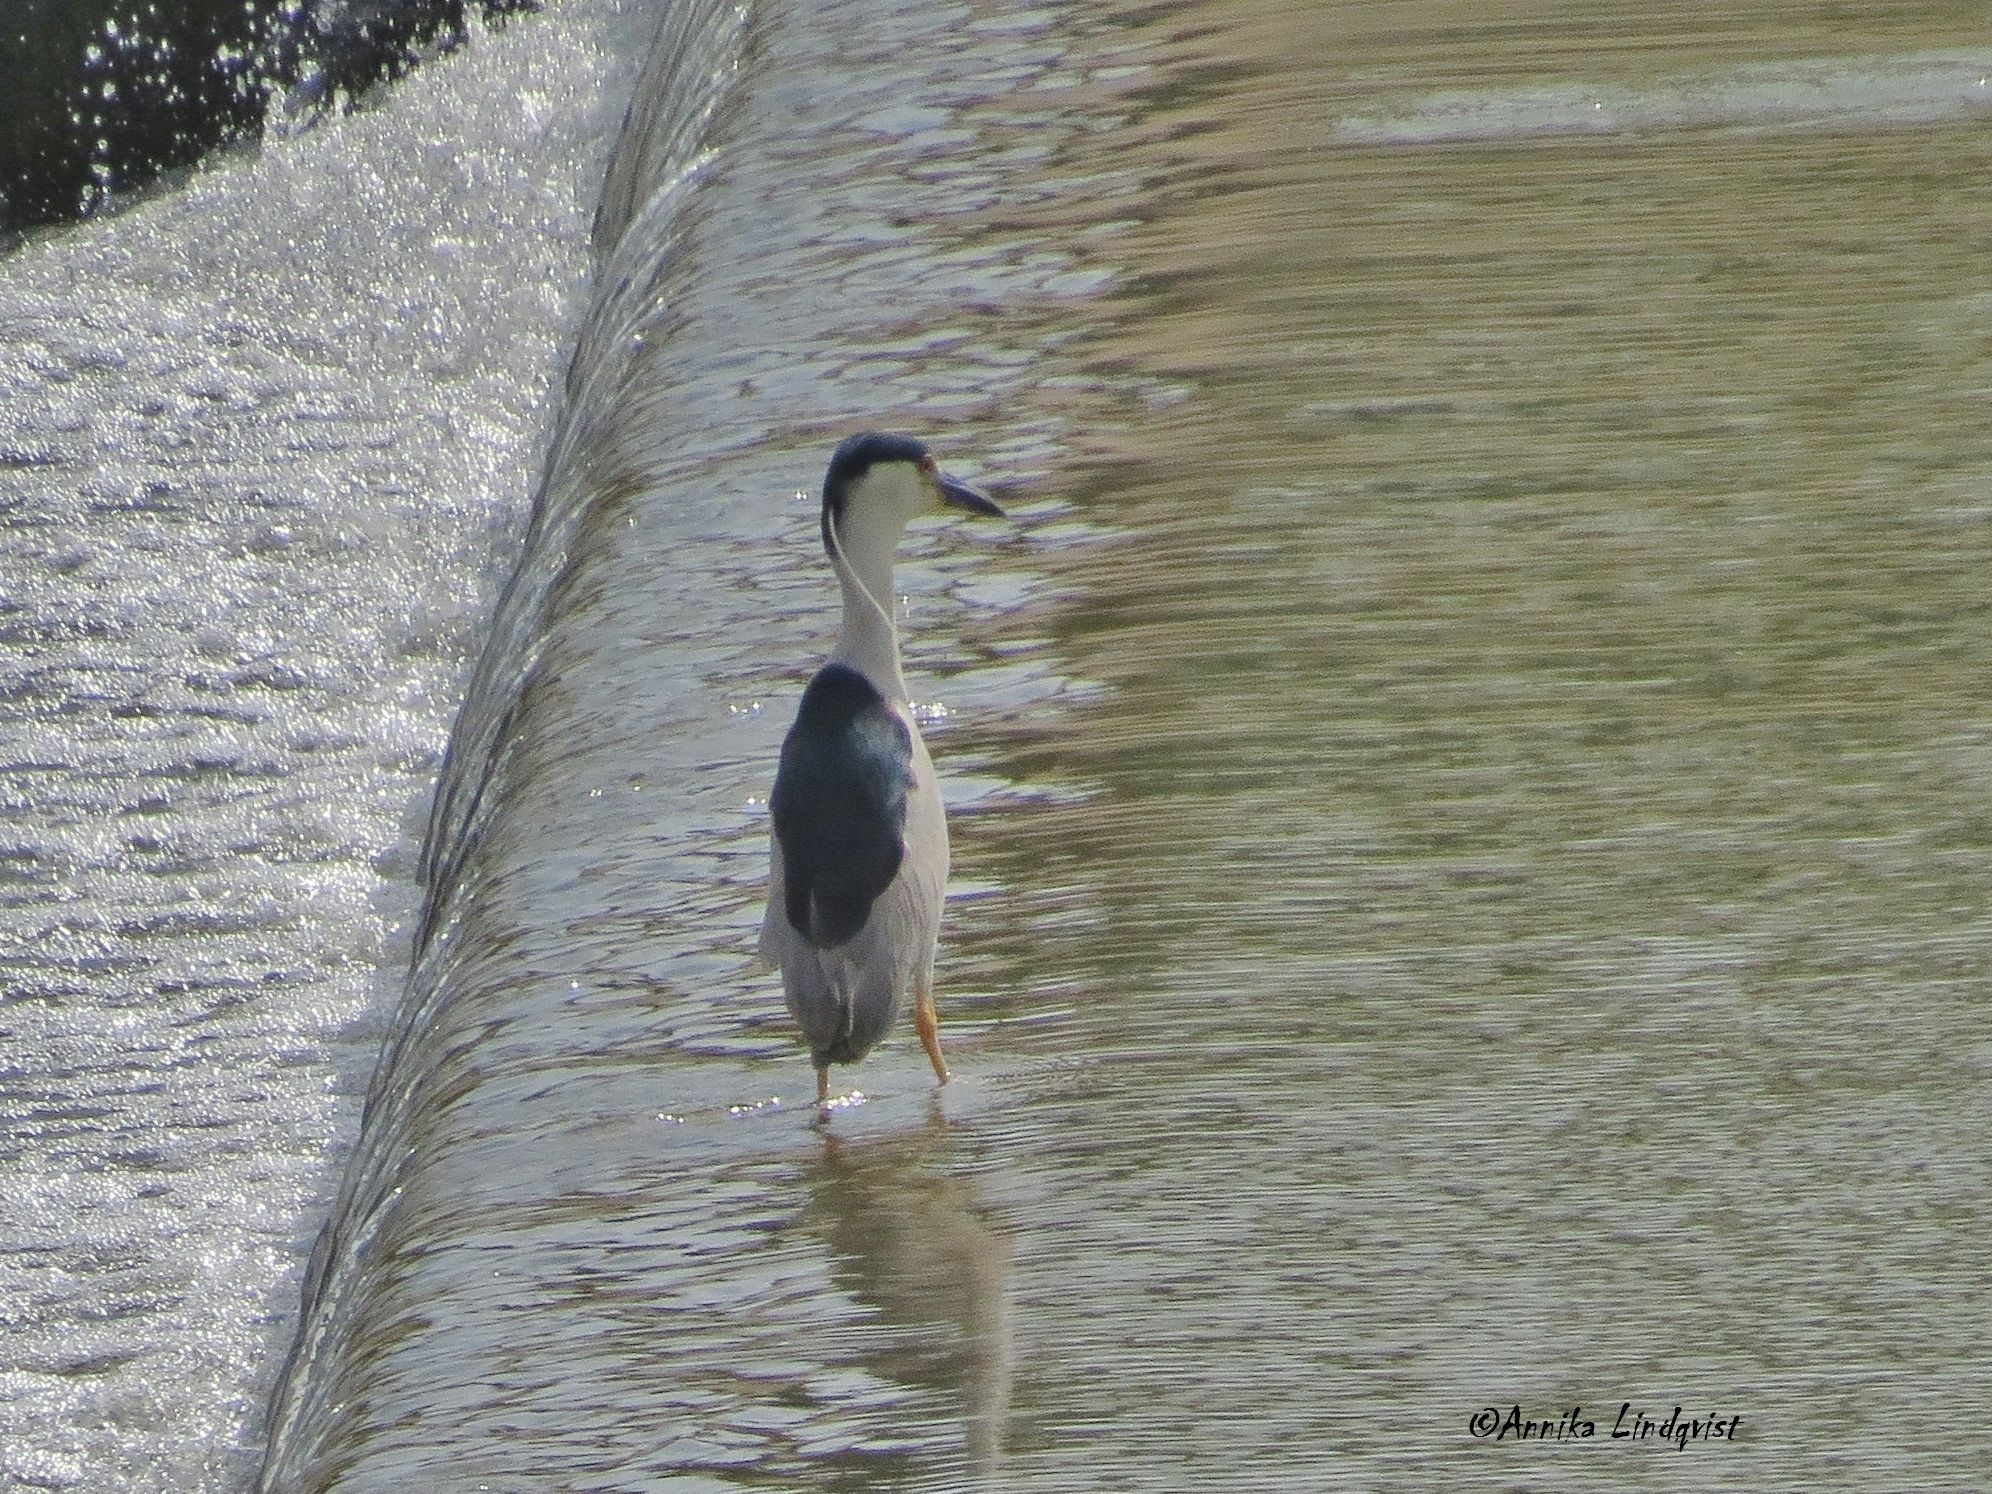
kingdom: Animalia
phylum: Chordata
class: Aves
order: Pelecaniformes
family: Ardeidae
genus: Nycticorax
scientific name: Nycticorax nycticorax
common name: Black-crowned night heron
